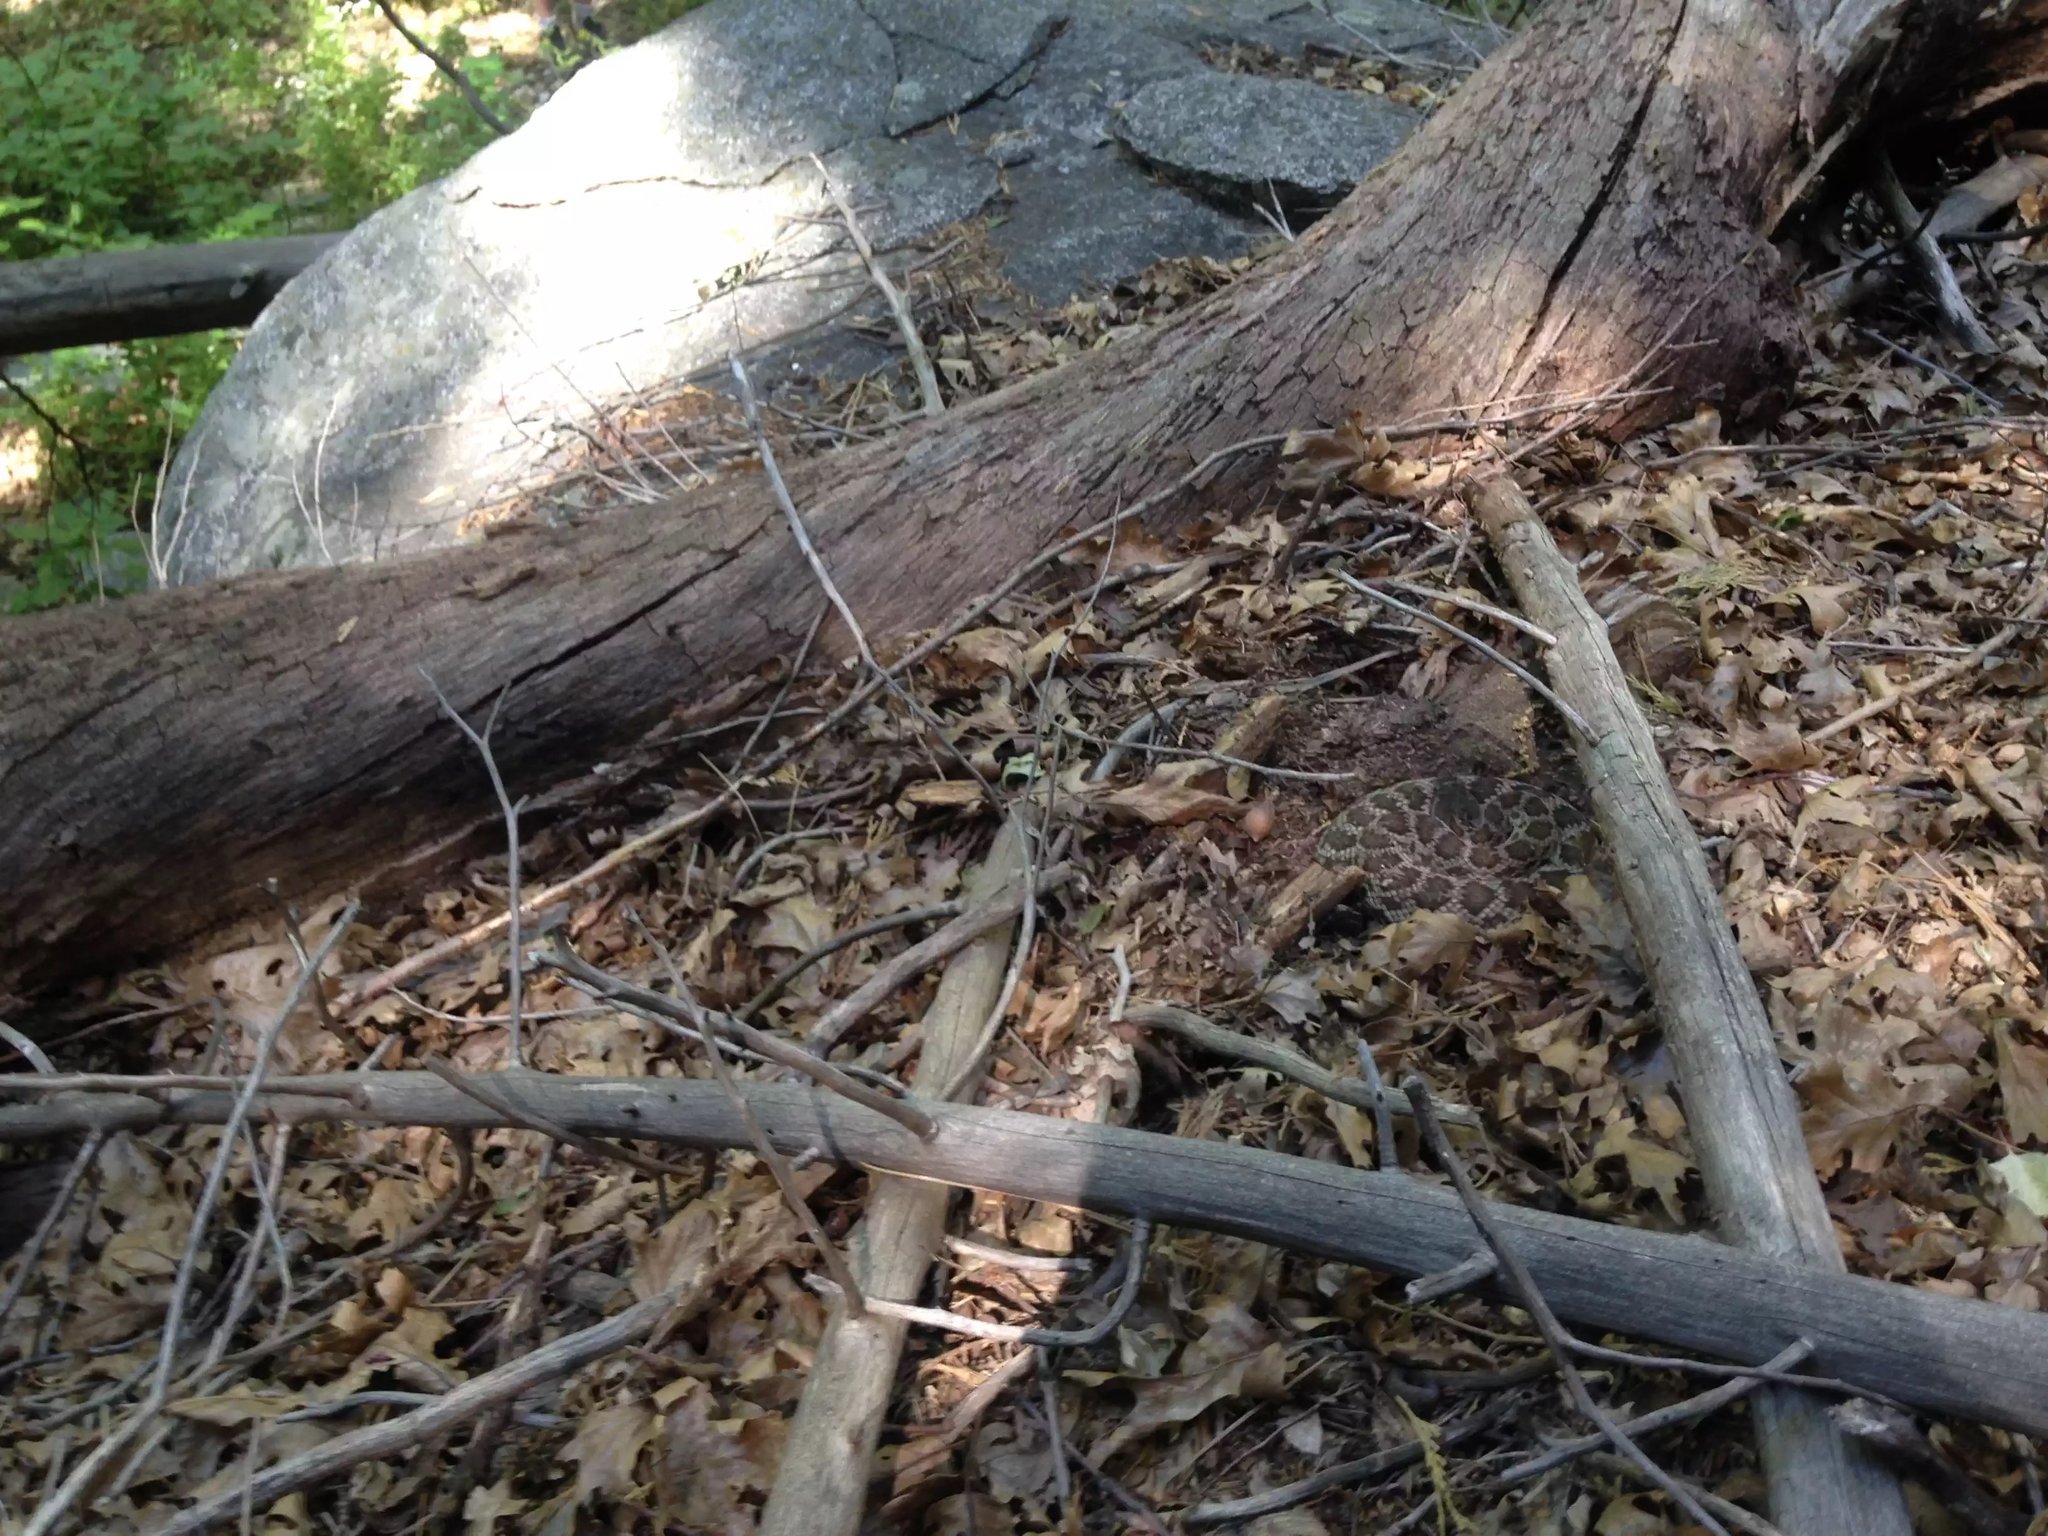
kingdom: Animalia
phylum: Chordata
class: Squamata
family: Viperidae
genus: Crotalus
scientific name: Crotalus oreganus
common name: Abyssus
